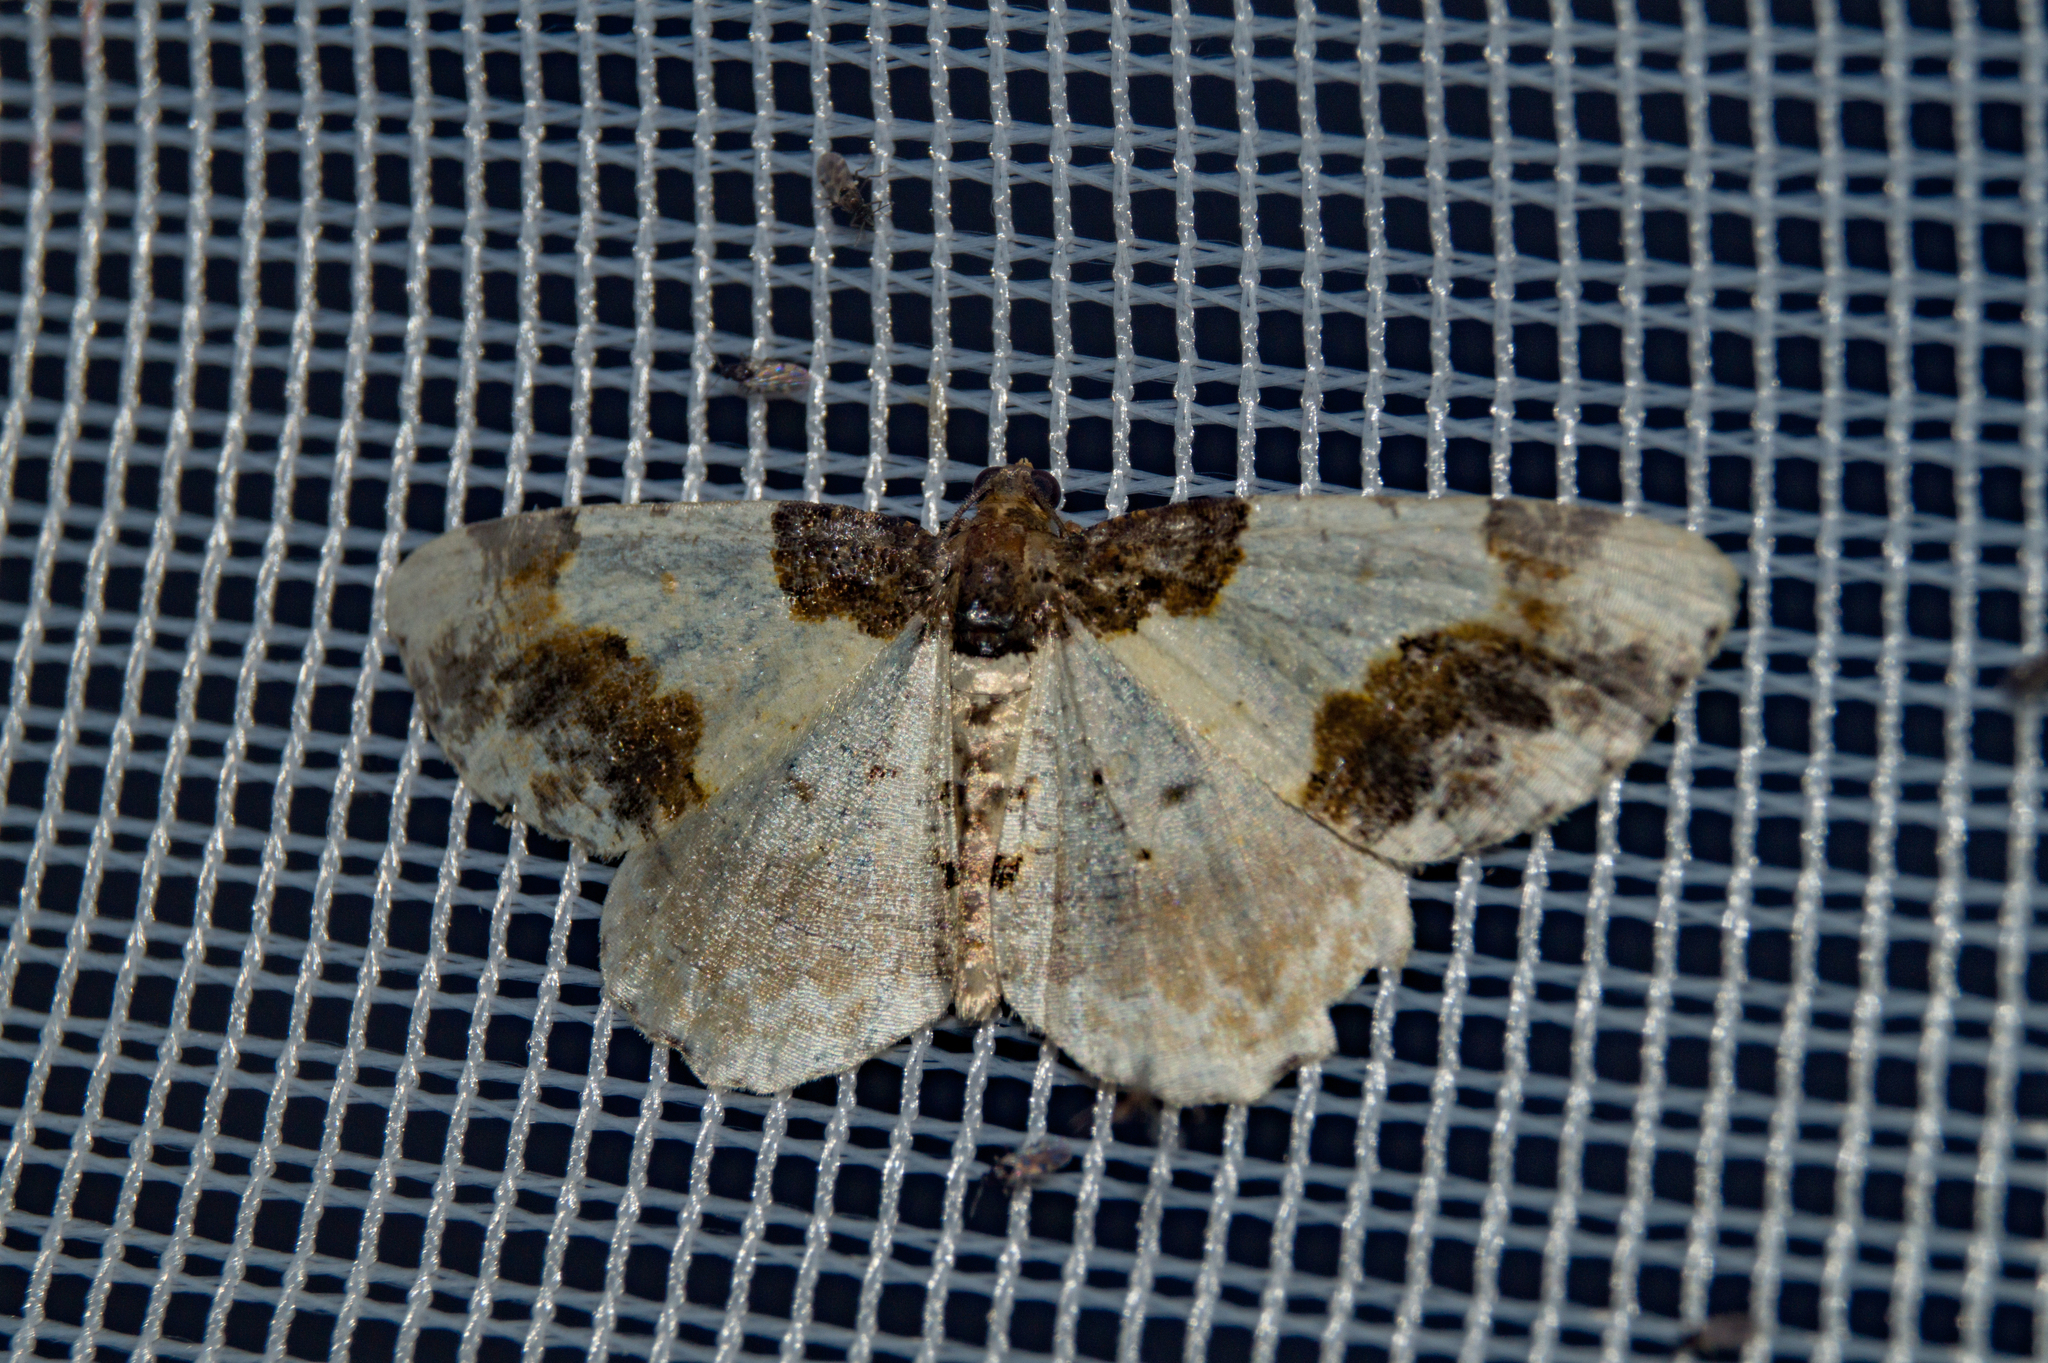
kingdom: Animalia
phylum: Arthropoda
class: Insecta
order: Lepidoptera
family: Geometridae
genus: Ligdia
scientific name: Ligdia adustata
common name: Scorched carpet
